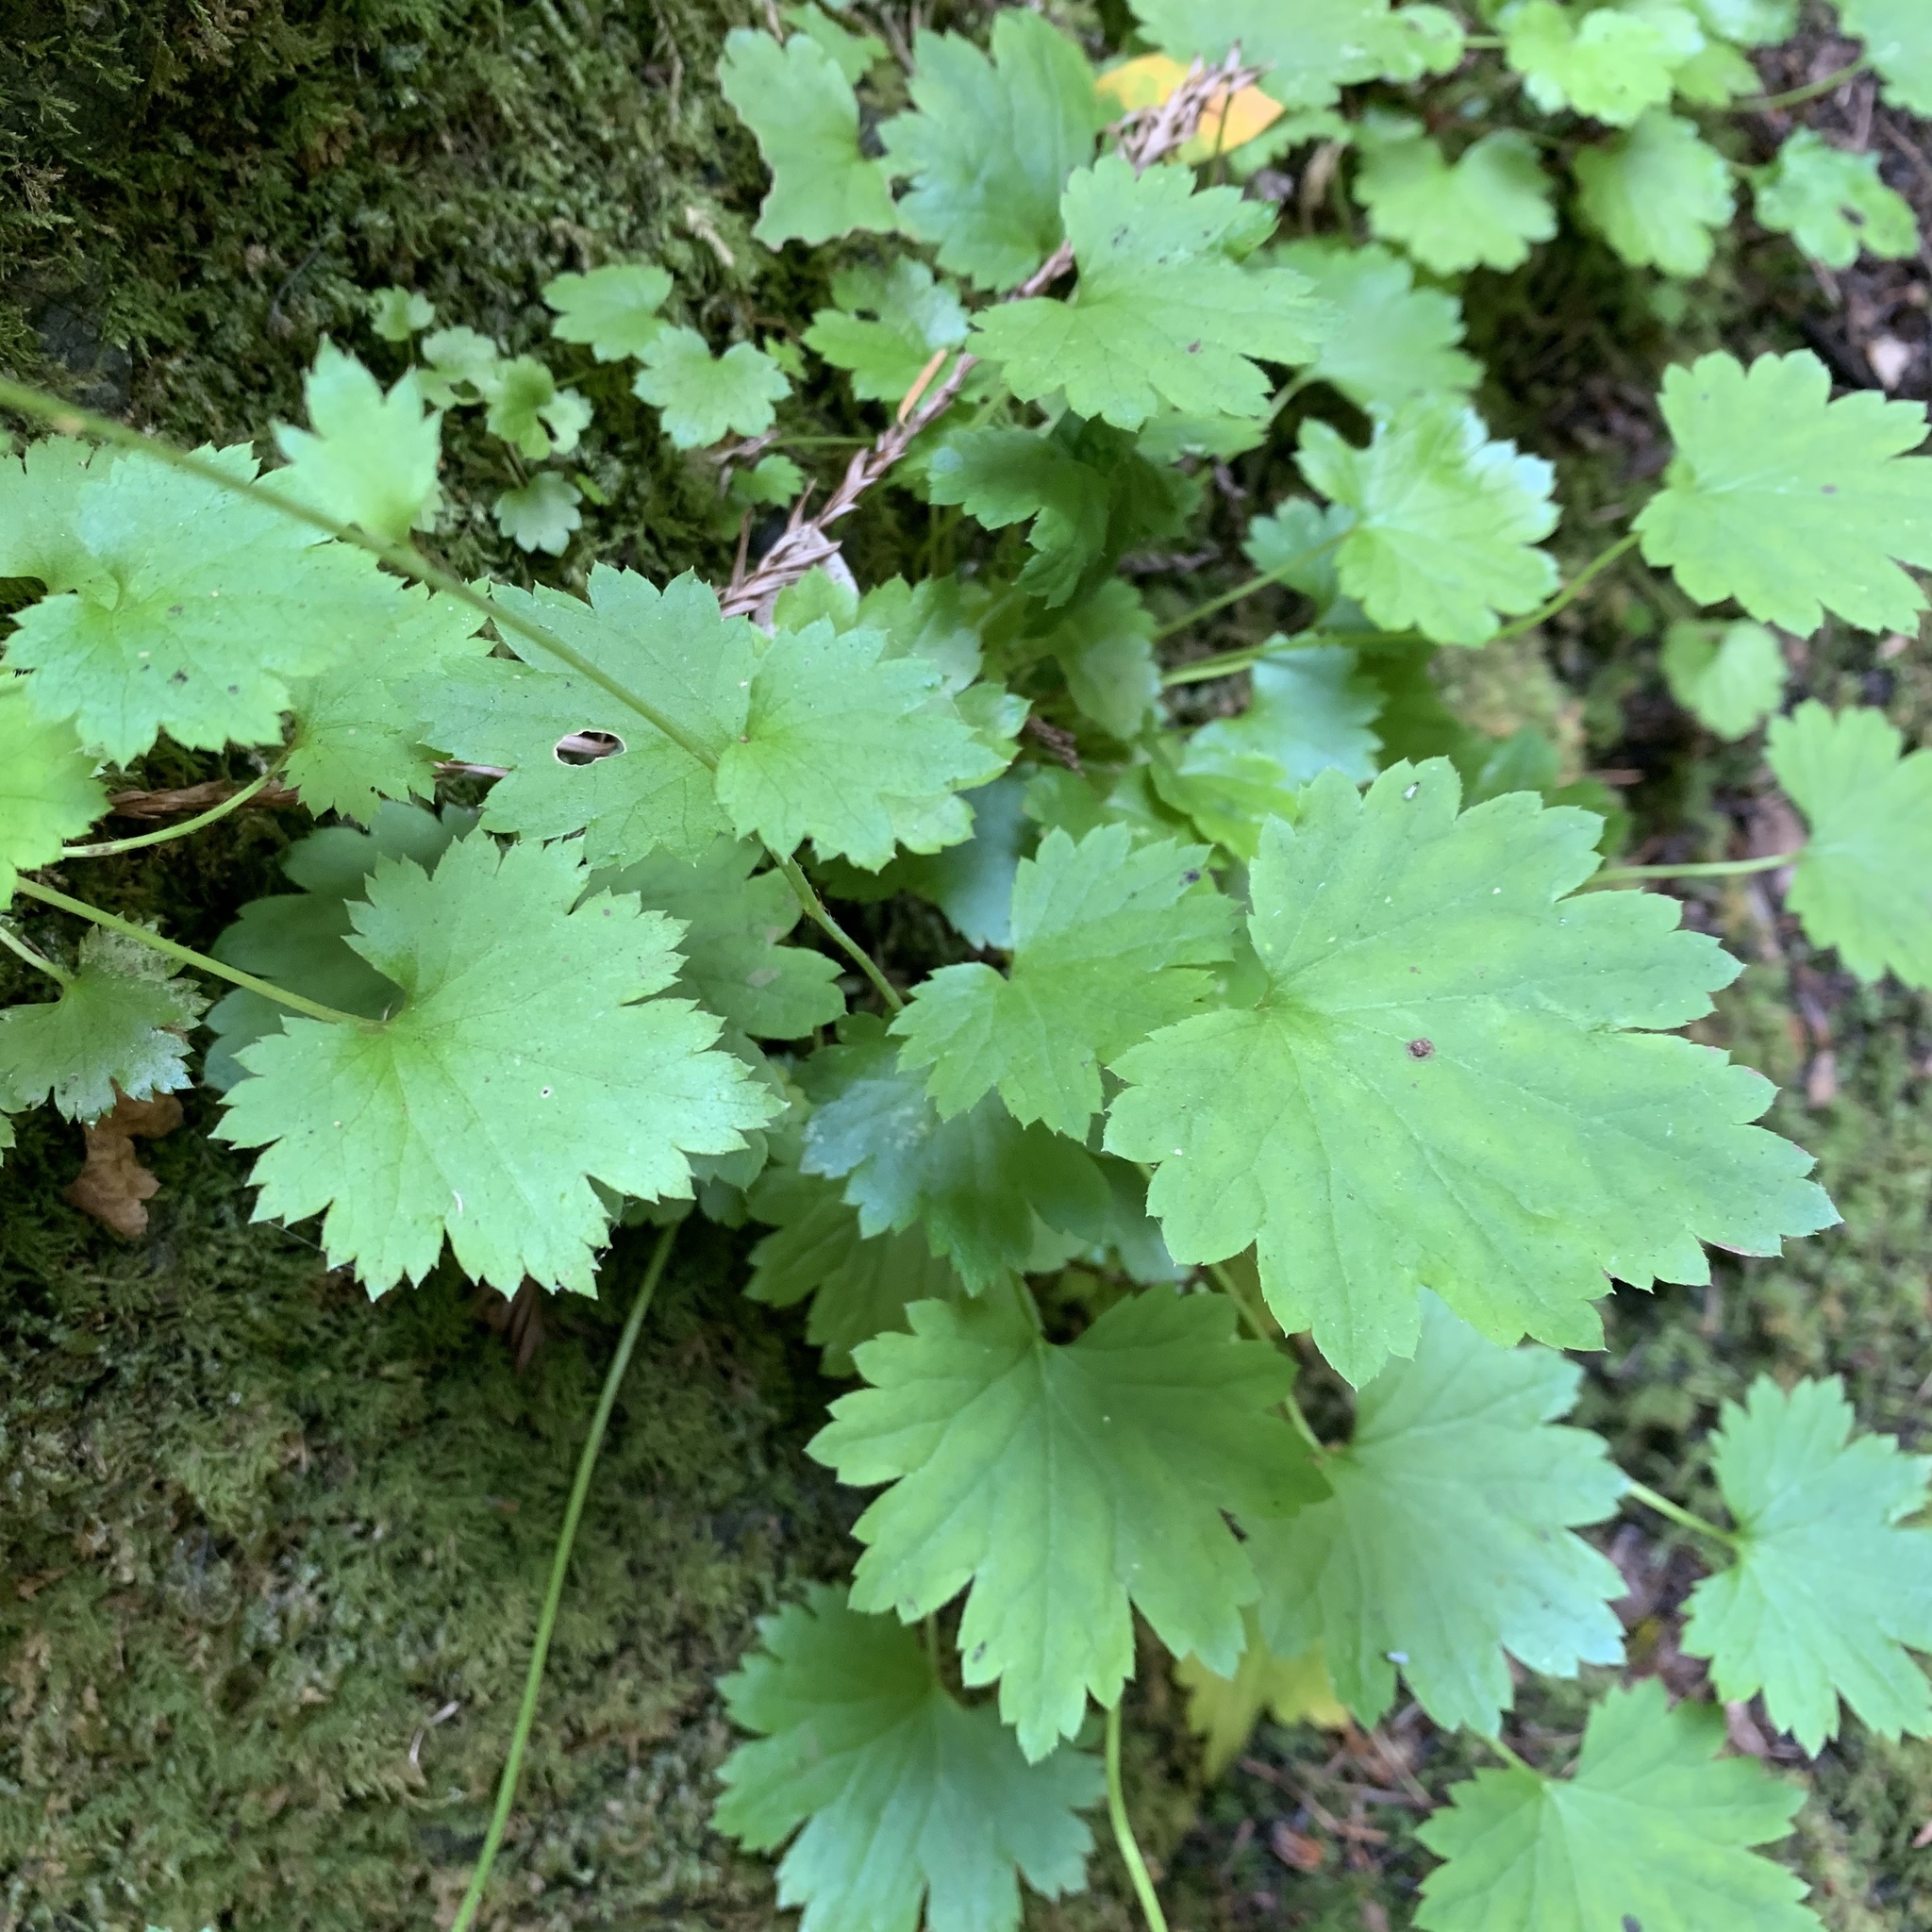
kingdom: Plantae
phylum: Tracheophyta
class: Magnoliopsida
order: Saxifragales
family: Saxifragaceae
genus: Boykinia
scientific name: Boykinia occidentalis
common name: Coast boykinia
